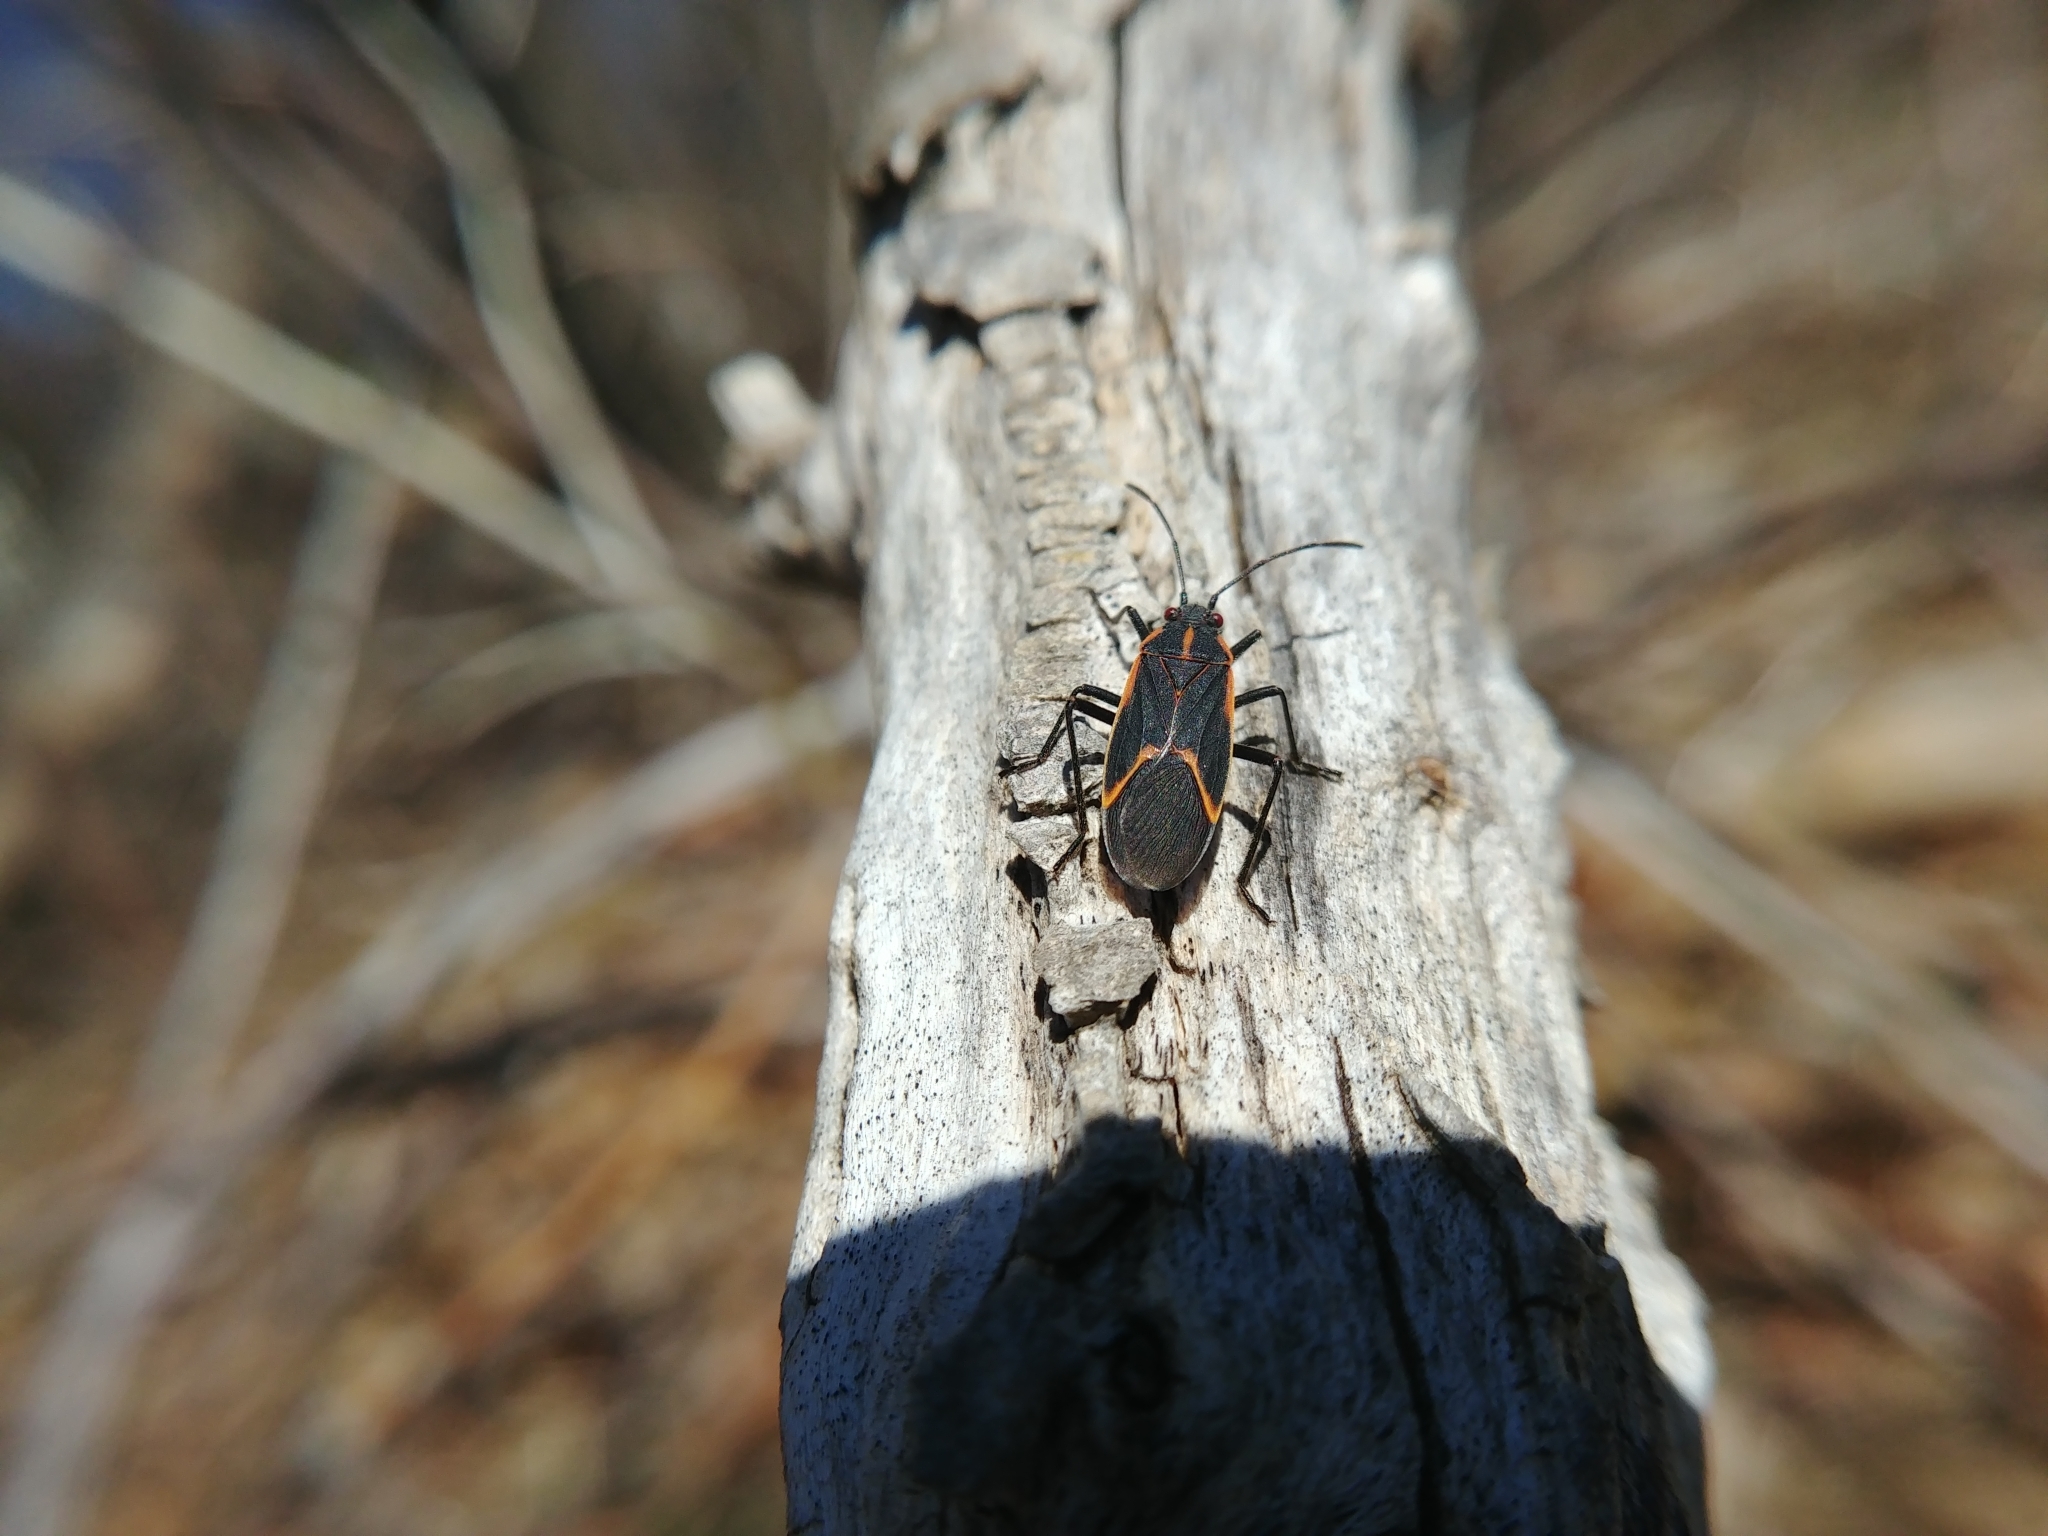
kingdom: Animalia
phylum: Arthropoda
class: Insecta
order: Hemiptera
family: Rhopalidae
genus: Boisea
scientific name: Boisea trivittata
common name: Boxelder bug
